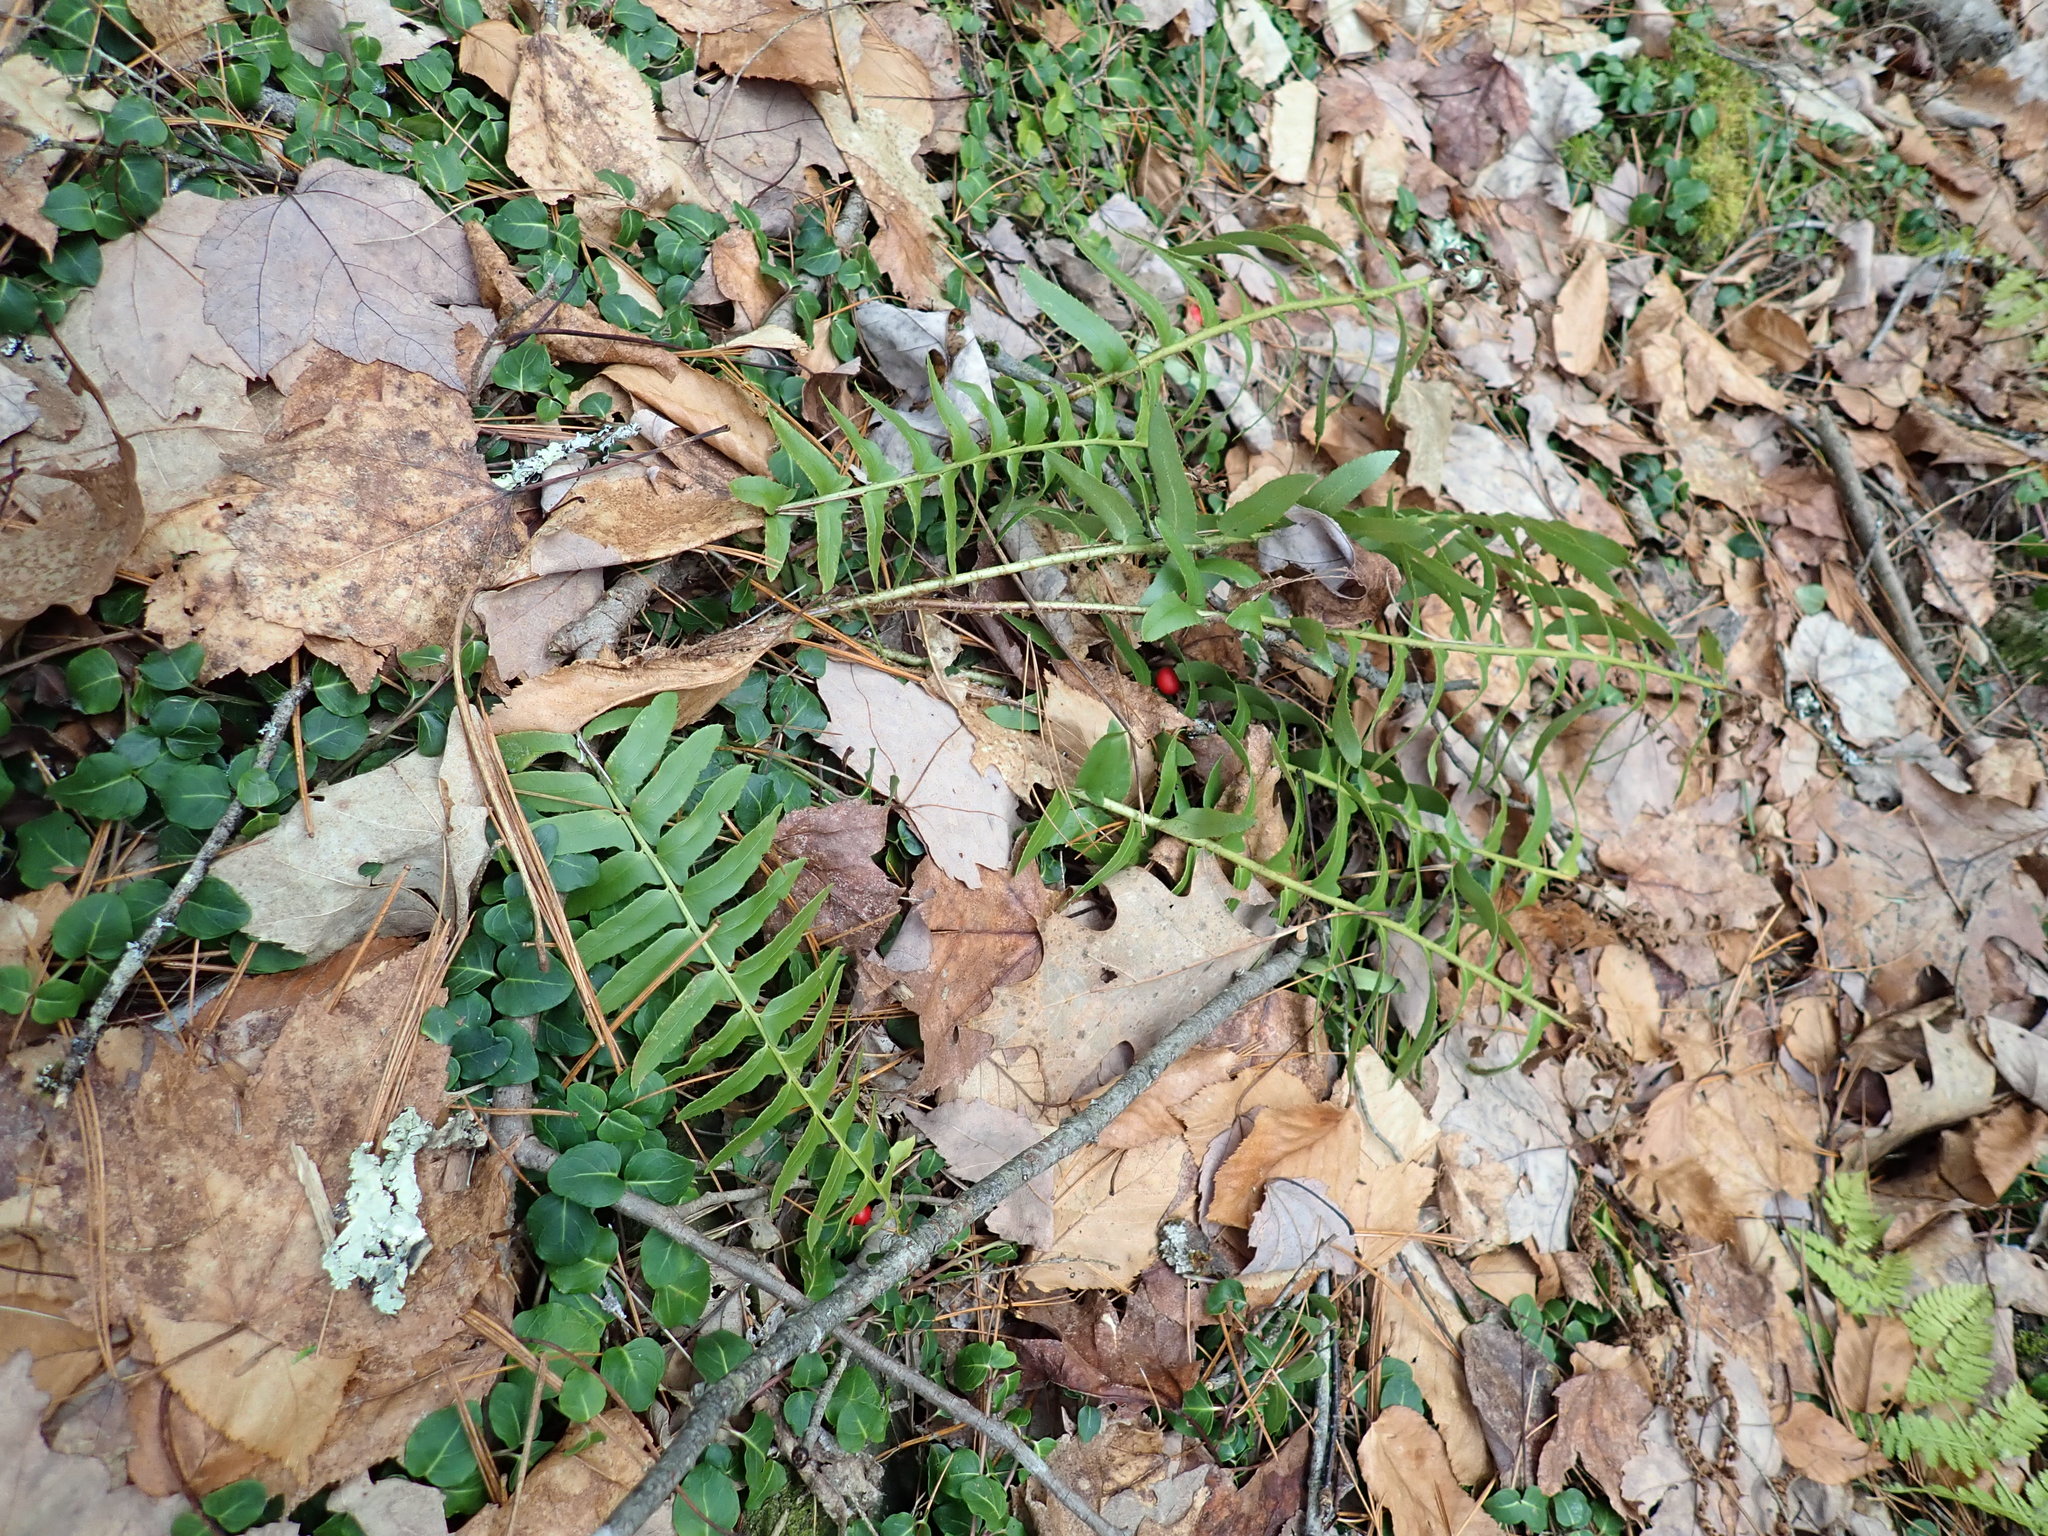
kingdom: Plantae
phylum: Tracheophyta
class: Polypodiopsida
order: Polypodiales
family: Dryopteridaceae
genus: Polystichum
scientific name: Polystichum acrostichoides
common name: Christmas fern
